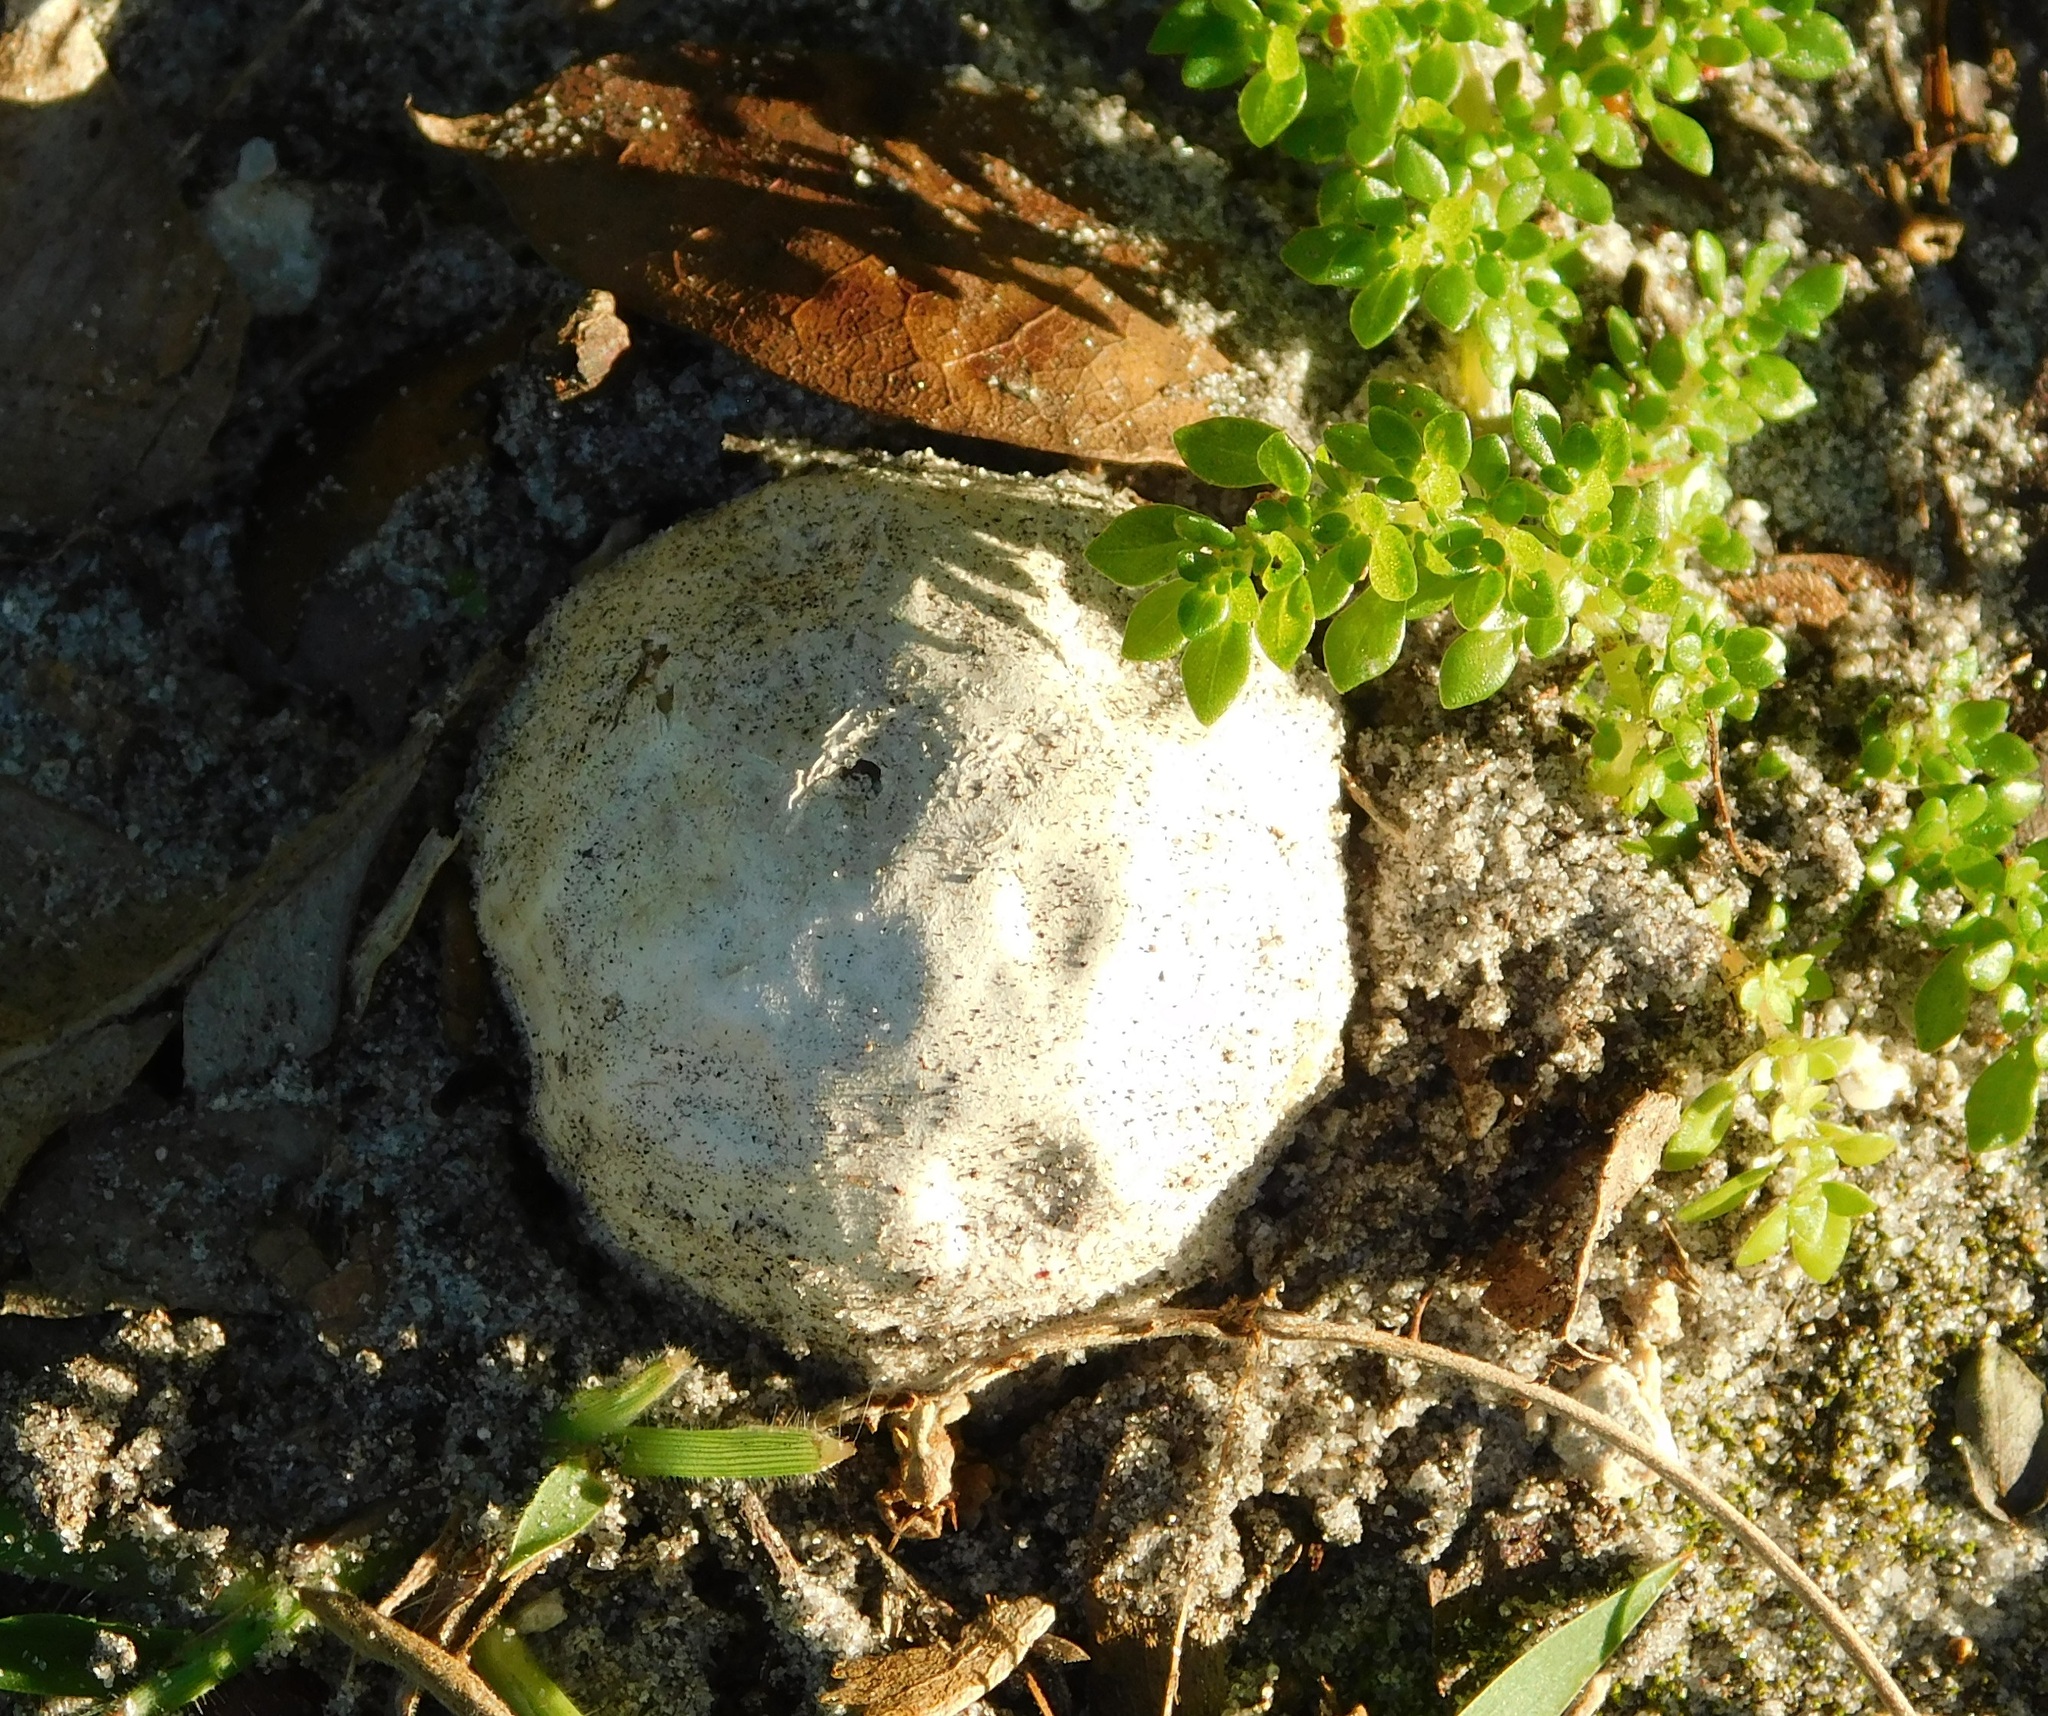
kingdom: Fungi
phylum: Basidiomycota
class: Agaricomycetes
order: Phallales
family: Phallaceae
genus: Clathrus
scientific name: Clathrus crispatus
